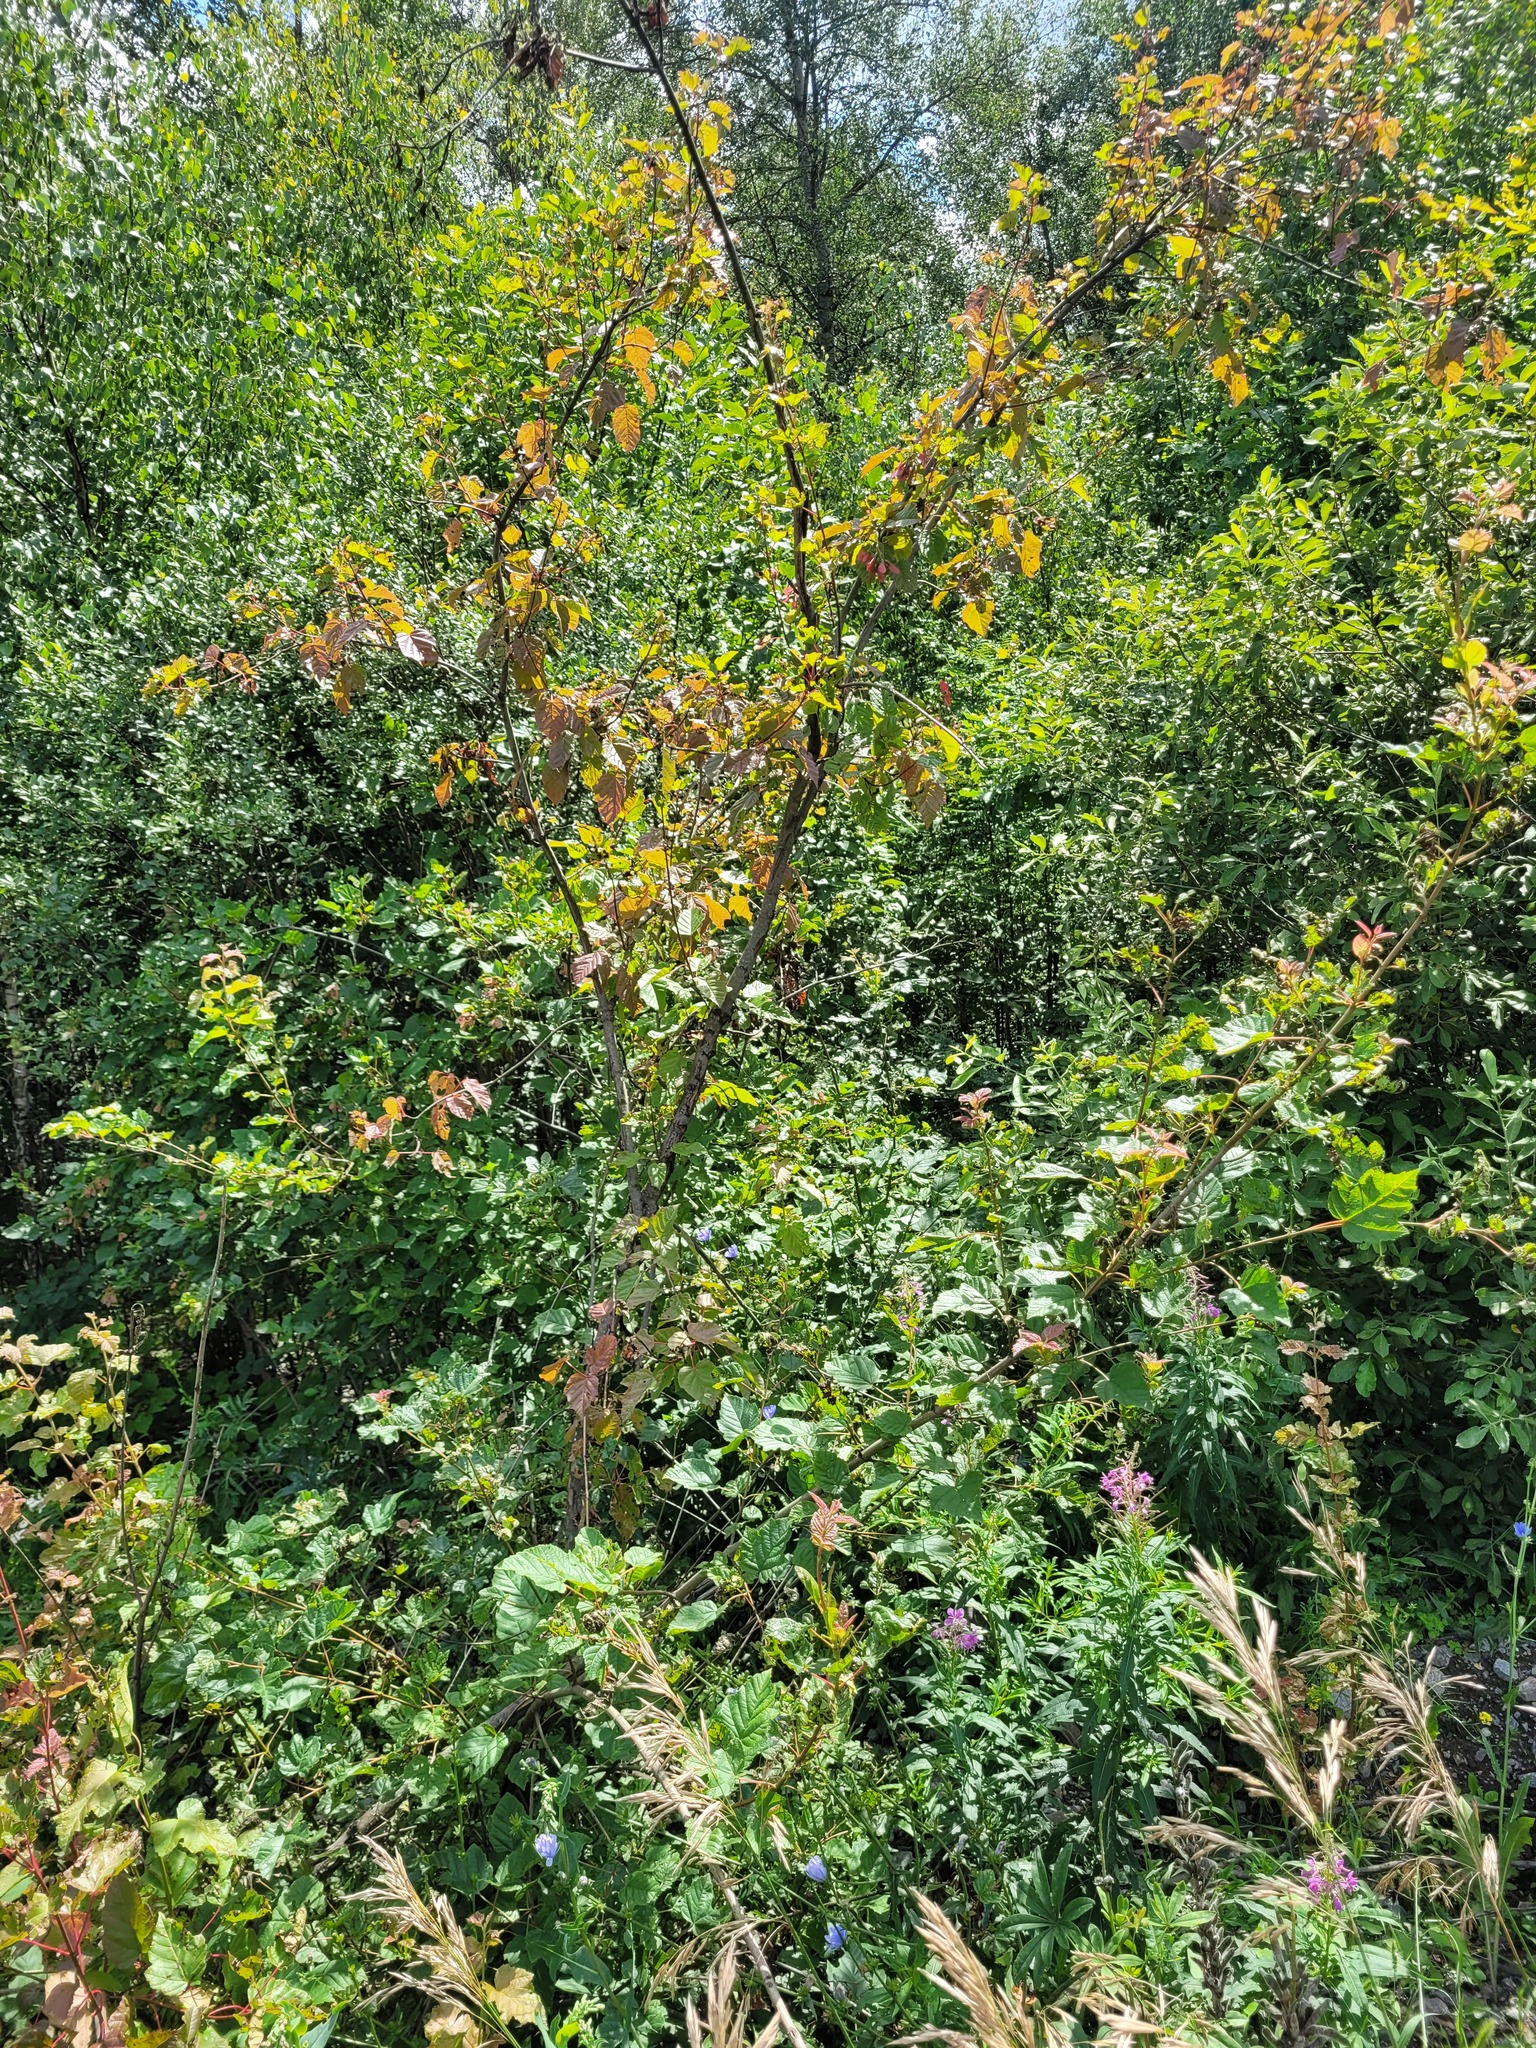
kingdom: Plantae
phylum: Tracheophyta
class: Magnoliopsida
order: Sapindales
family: Sapindaceae
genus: Acer
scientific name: Acer tataricum
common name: Tartar maple
